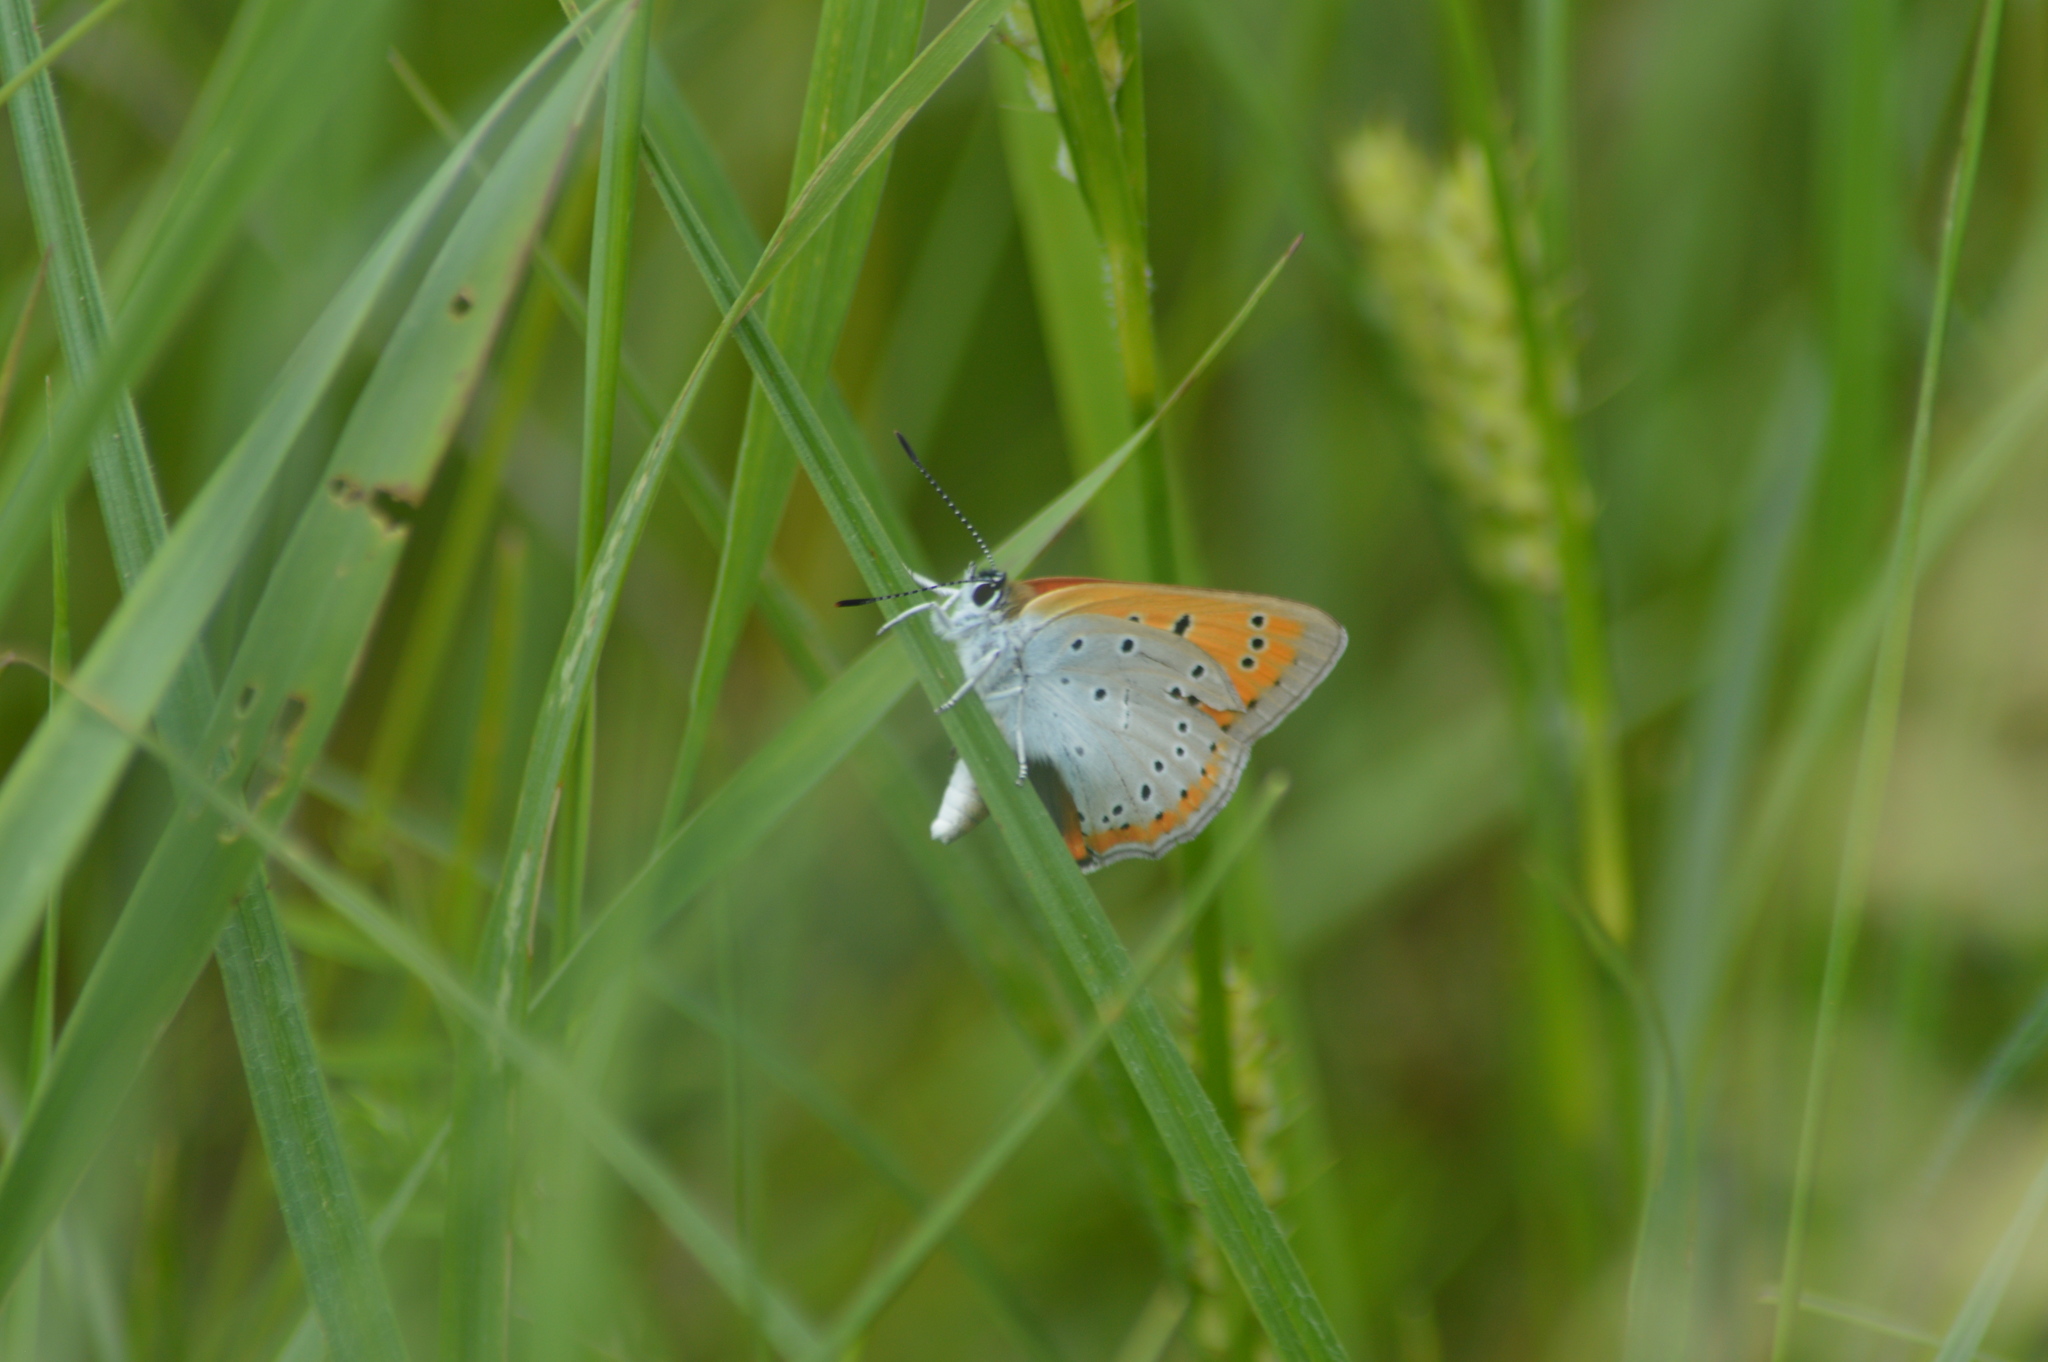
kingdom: Animalia
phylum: Arthropoda
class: Insecta
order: Lepidoptera
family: Lycaenidae
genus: Lycaena
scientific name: Lycaena dispar
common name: Large copper
